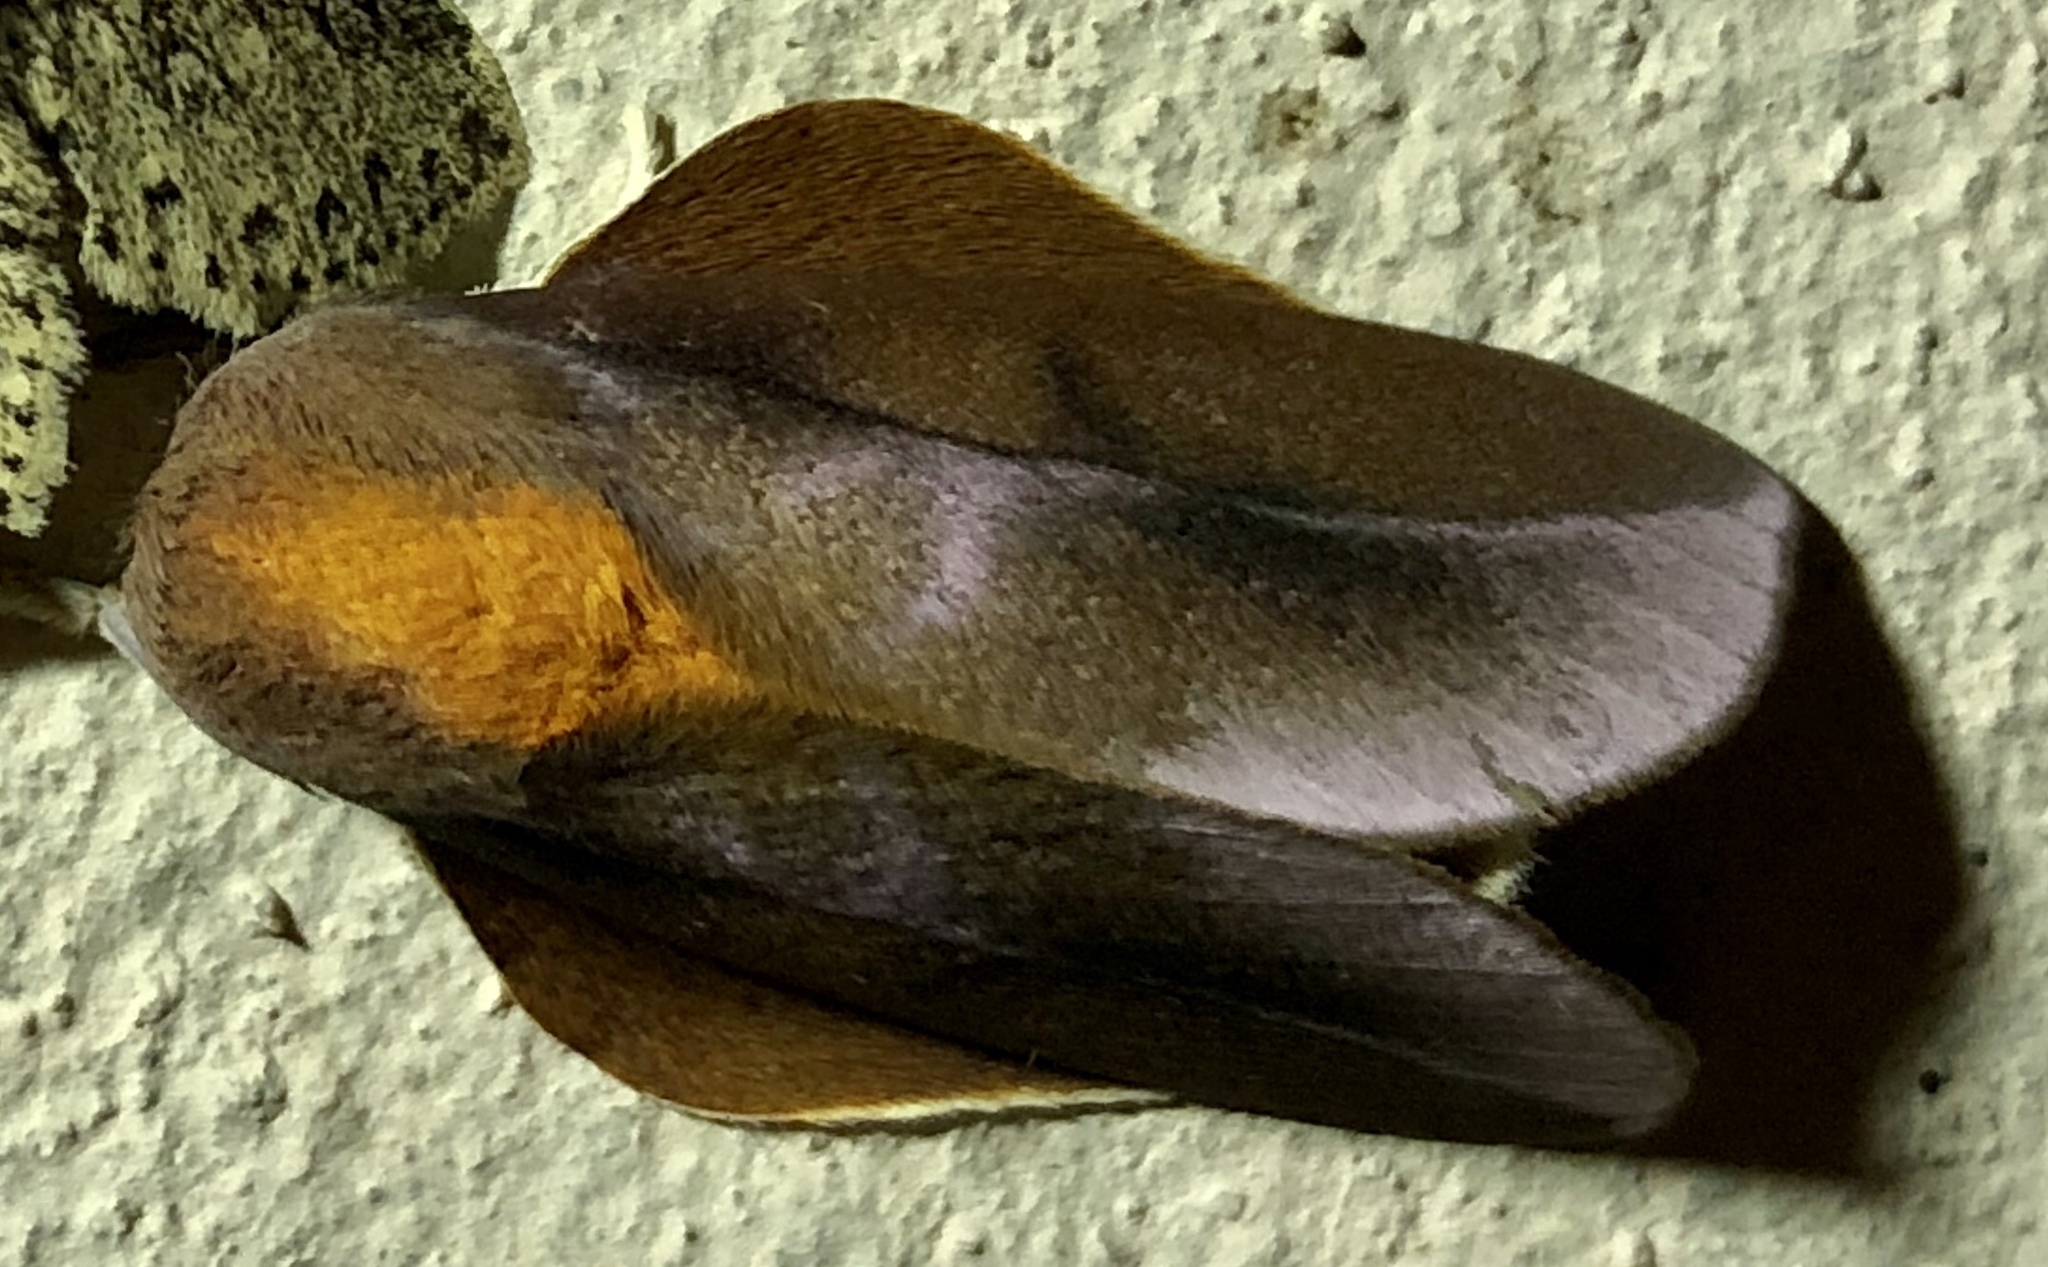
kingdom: Animalia
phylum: Arthropoda
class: Insecta
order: Lepidoptera
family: Saturniidae
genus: Dacunju
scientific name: Dacunju jucunda
